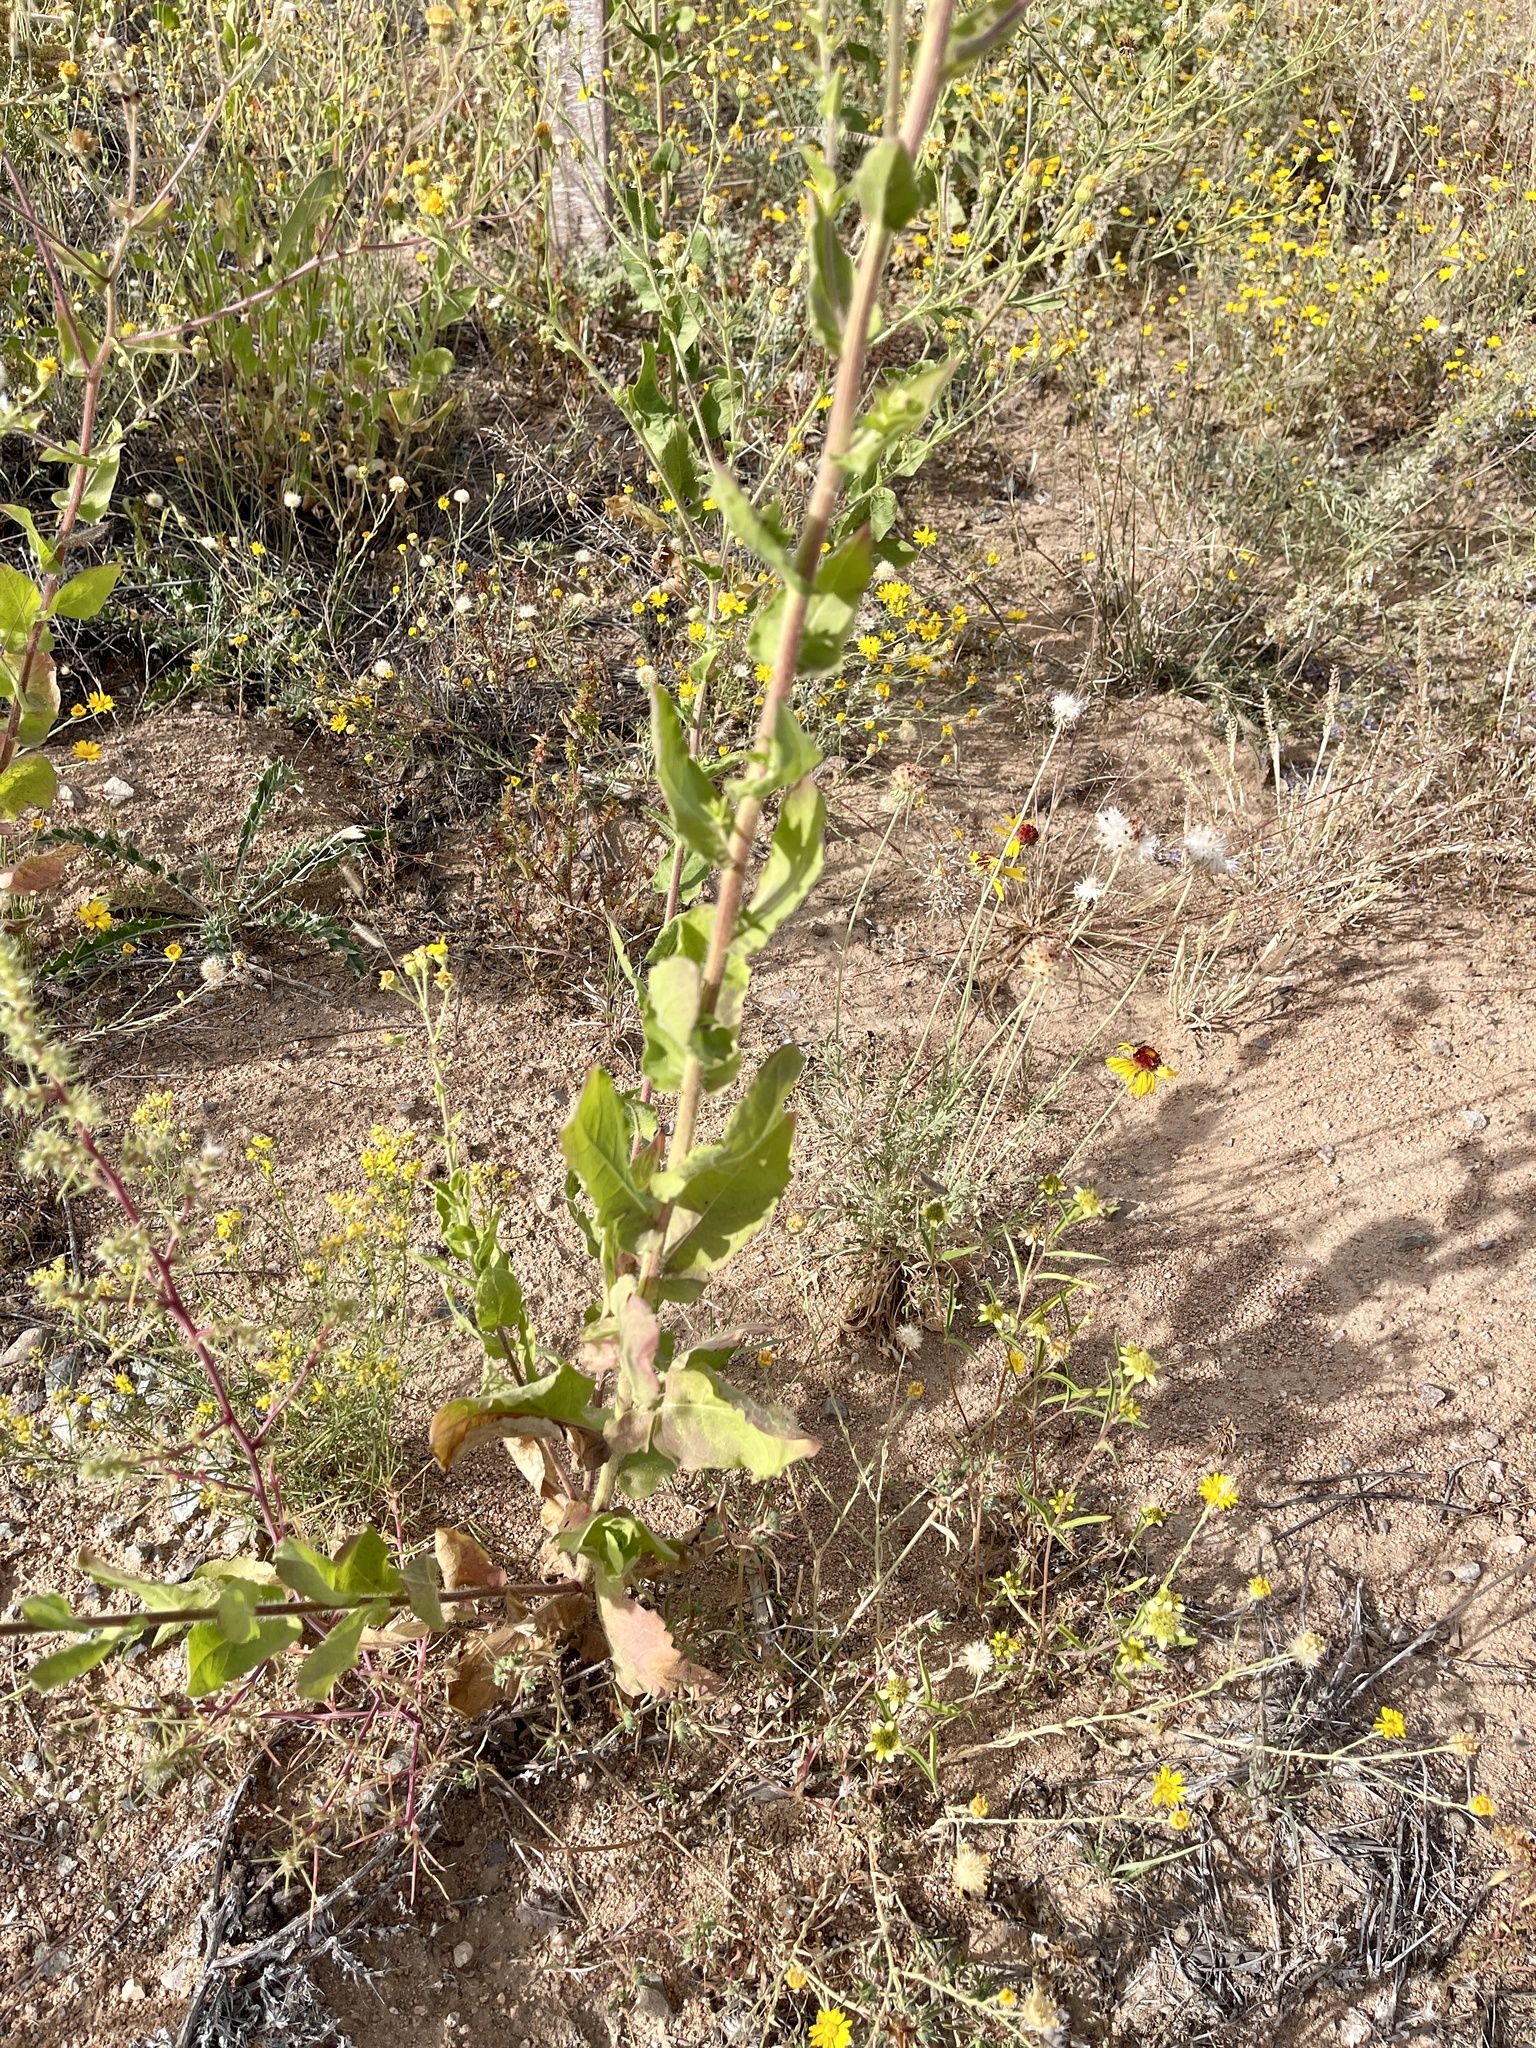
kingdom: Plantae
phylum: Tracheophyta
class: Magnoliopsida
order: Asterales
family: Asteraceae
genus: Heterotheca
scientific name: Heterotheca subaxillaris
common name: Camphorweed
